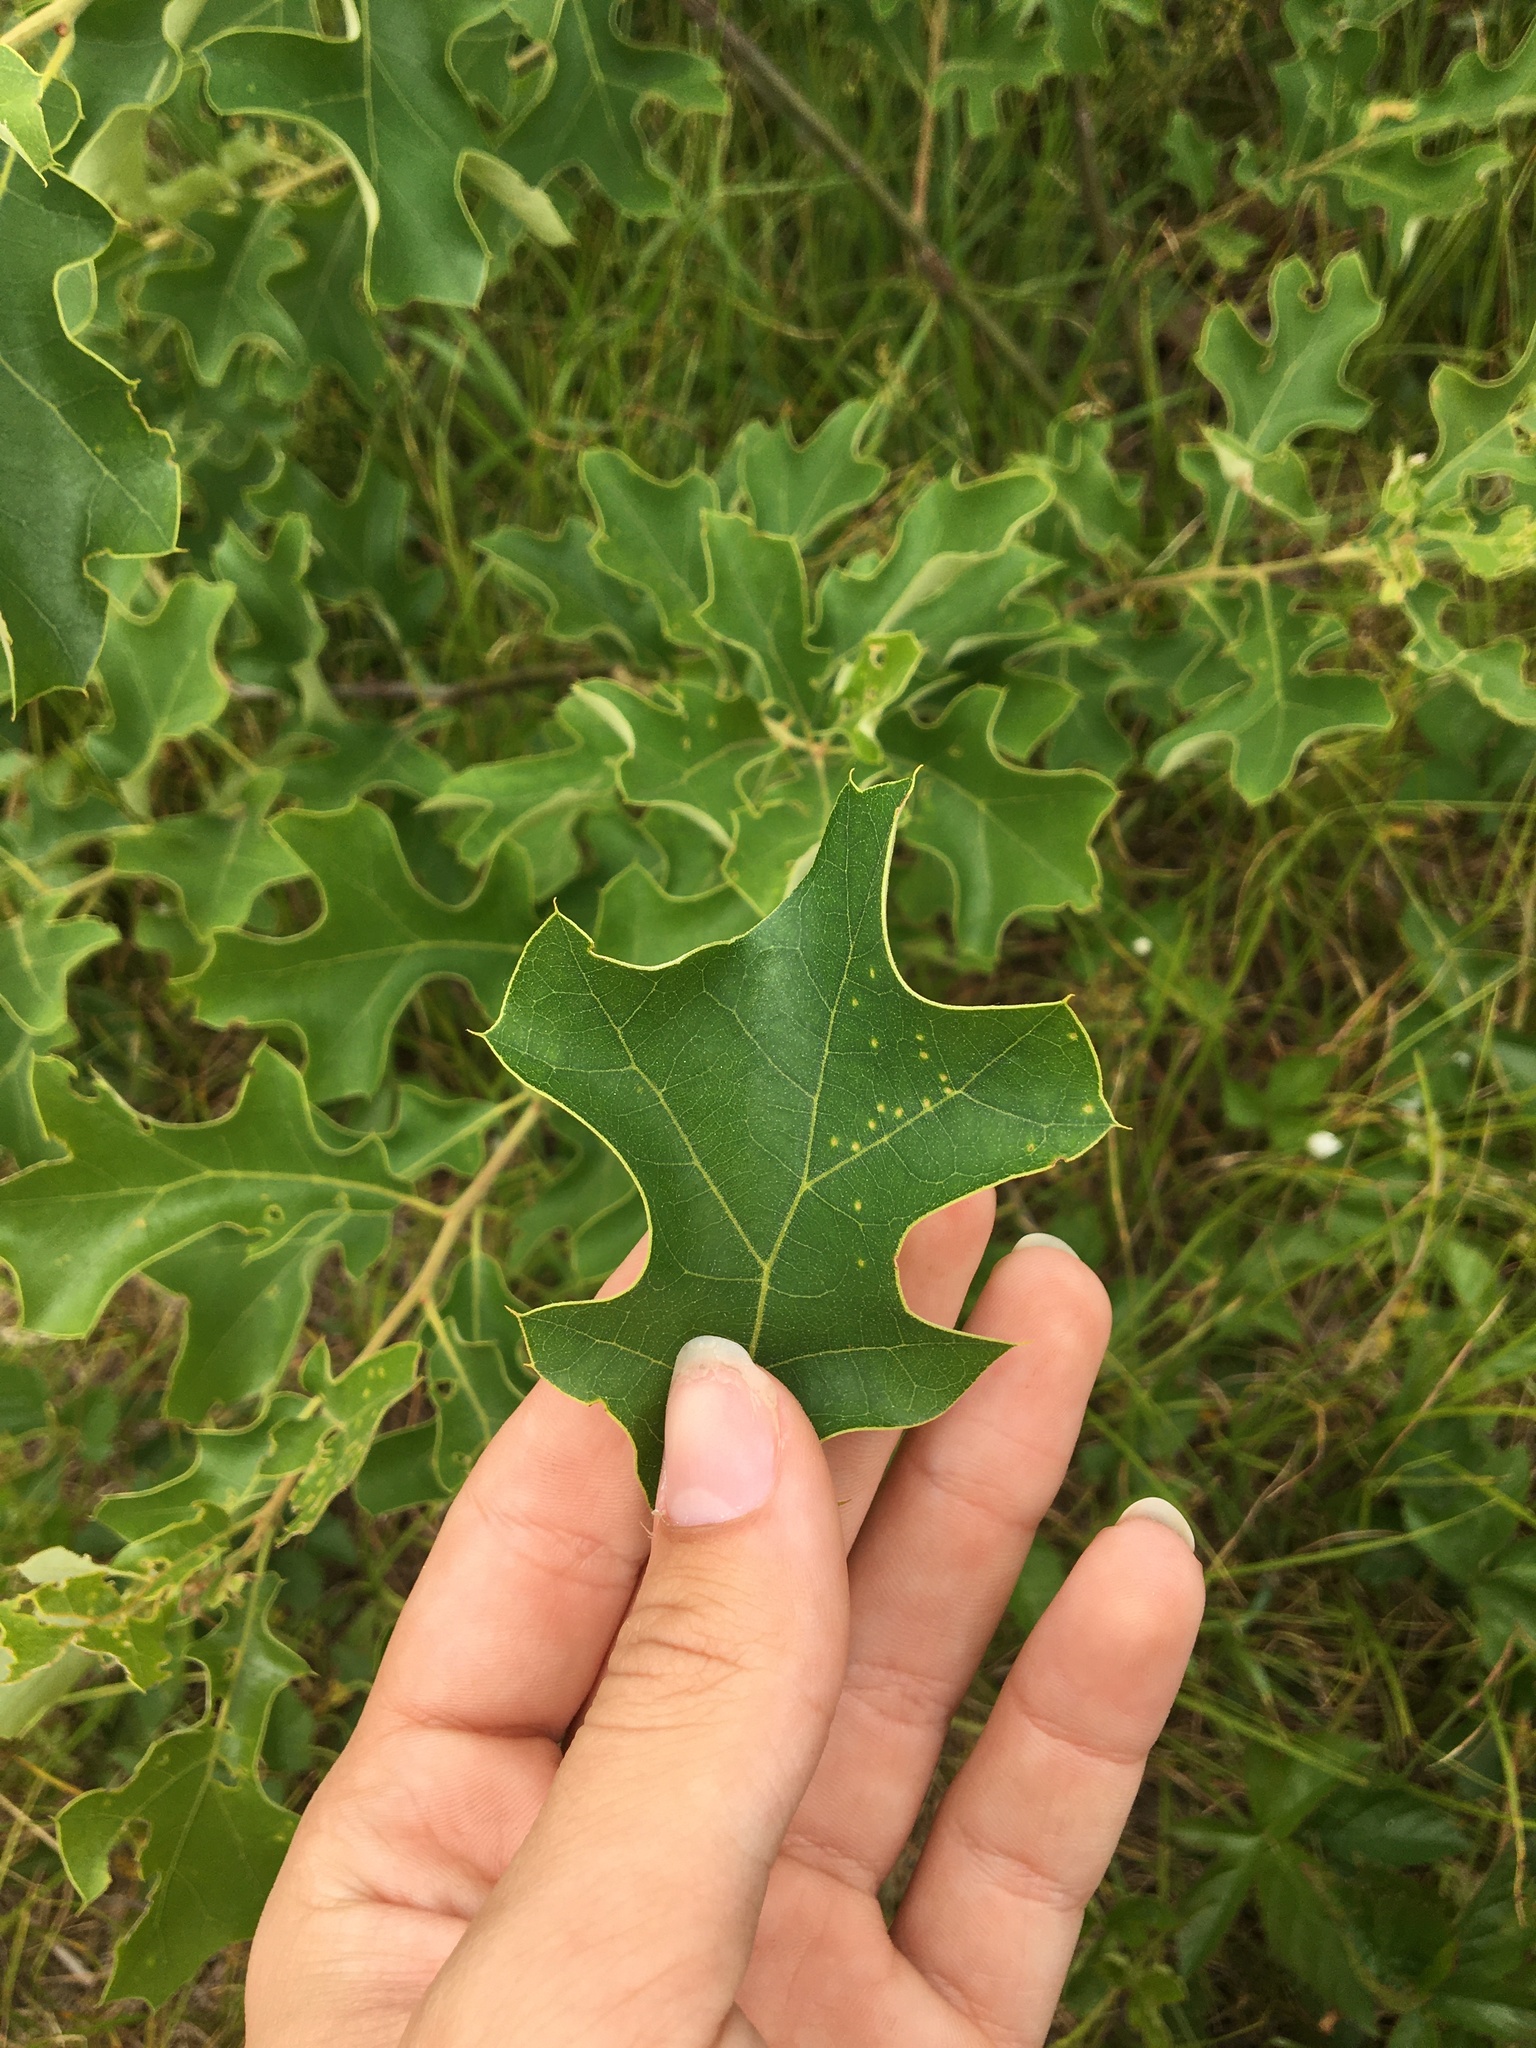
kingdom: Plantae
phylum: Tracheophyta
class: Magnoliopsida
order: Fagales
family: Fagaceae
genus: Quercus
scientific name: Quercus ilicifolia
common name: Bear oak
